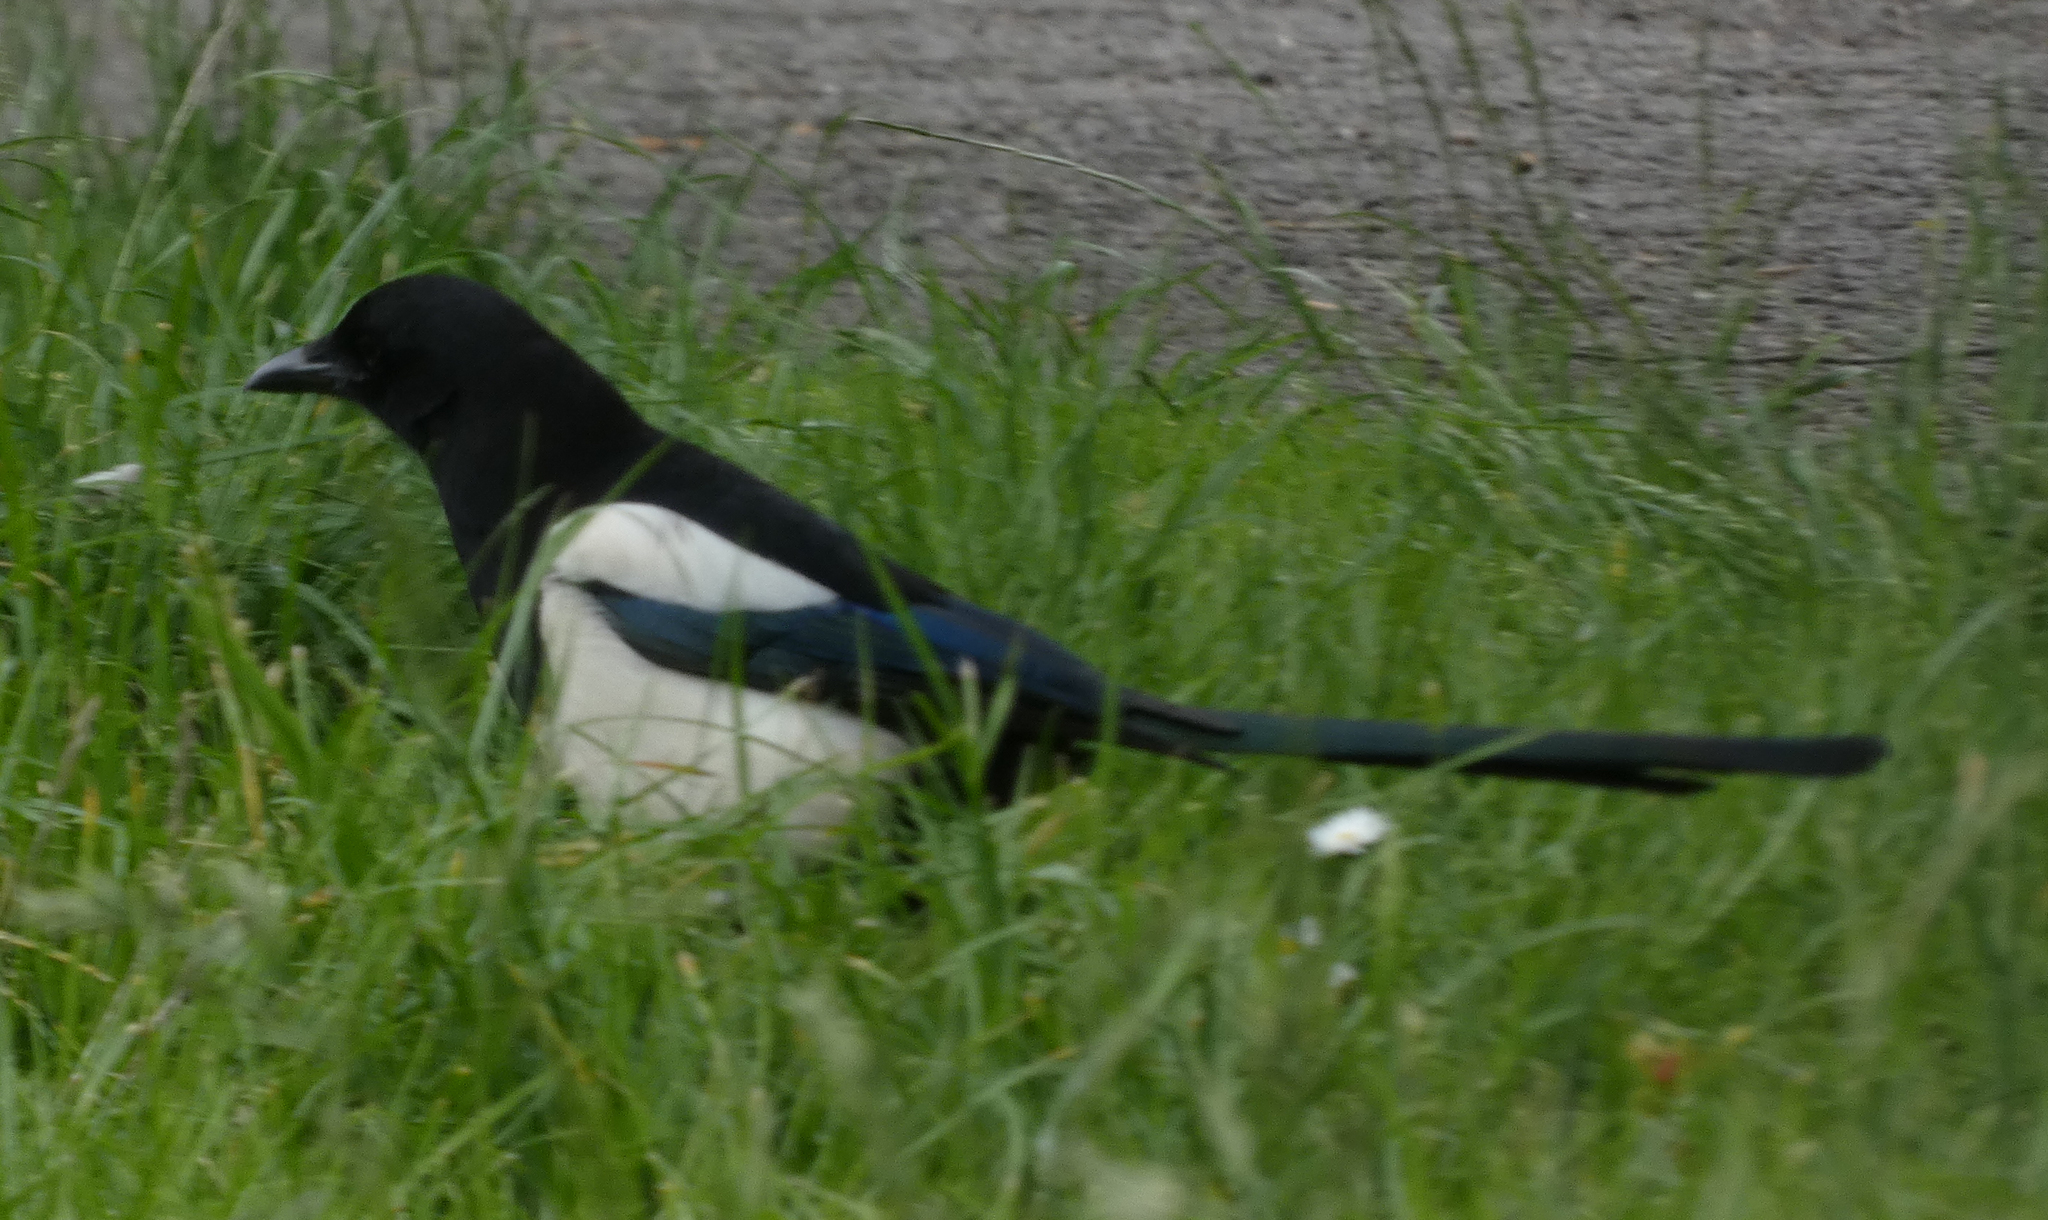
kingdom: Animalia
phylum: Chordata
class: Aves
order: Passeriformes
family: Corvidae
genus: Pica
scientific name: Pica pica
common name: Eurasian magpie
